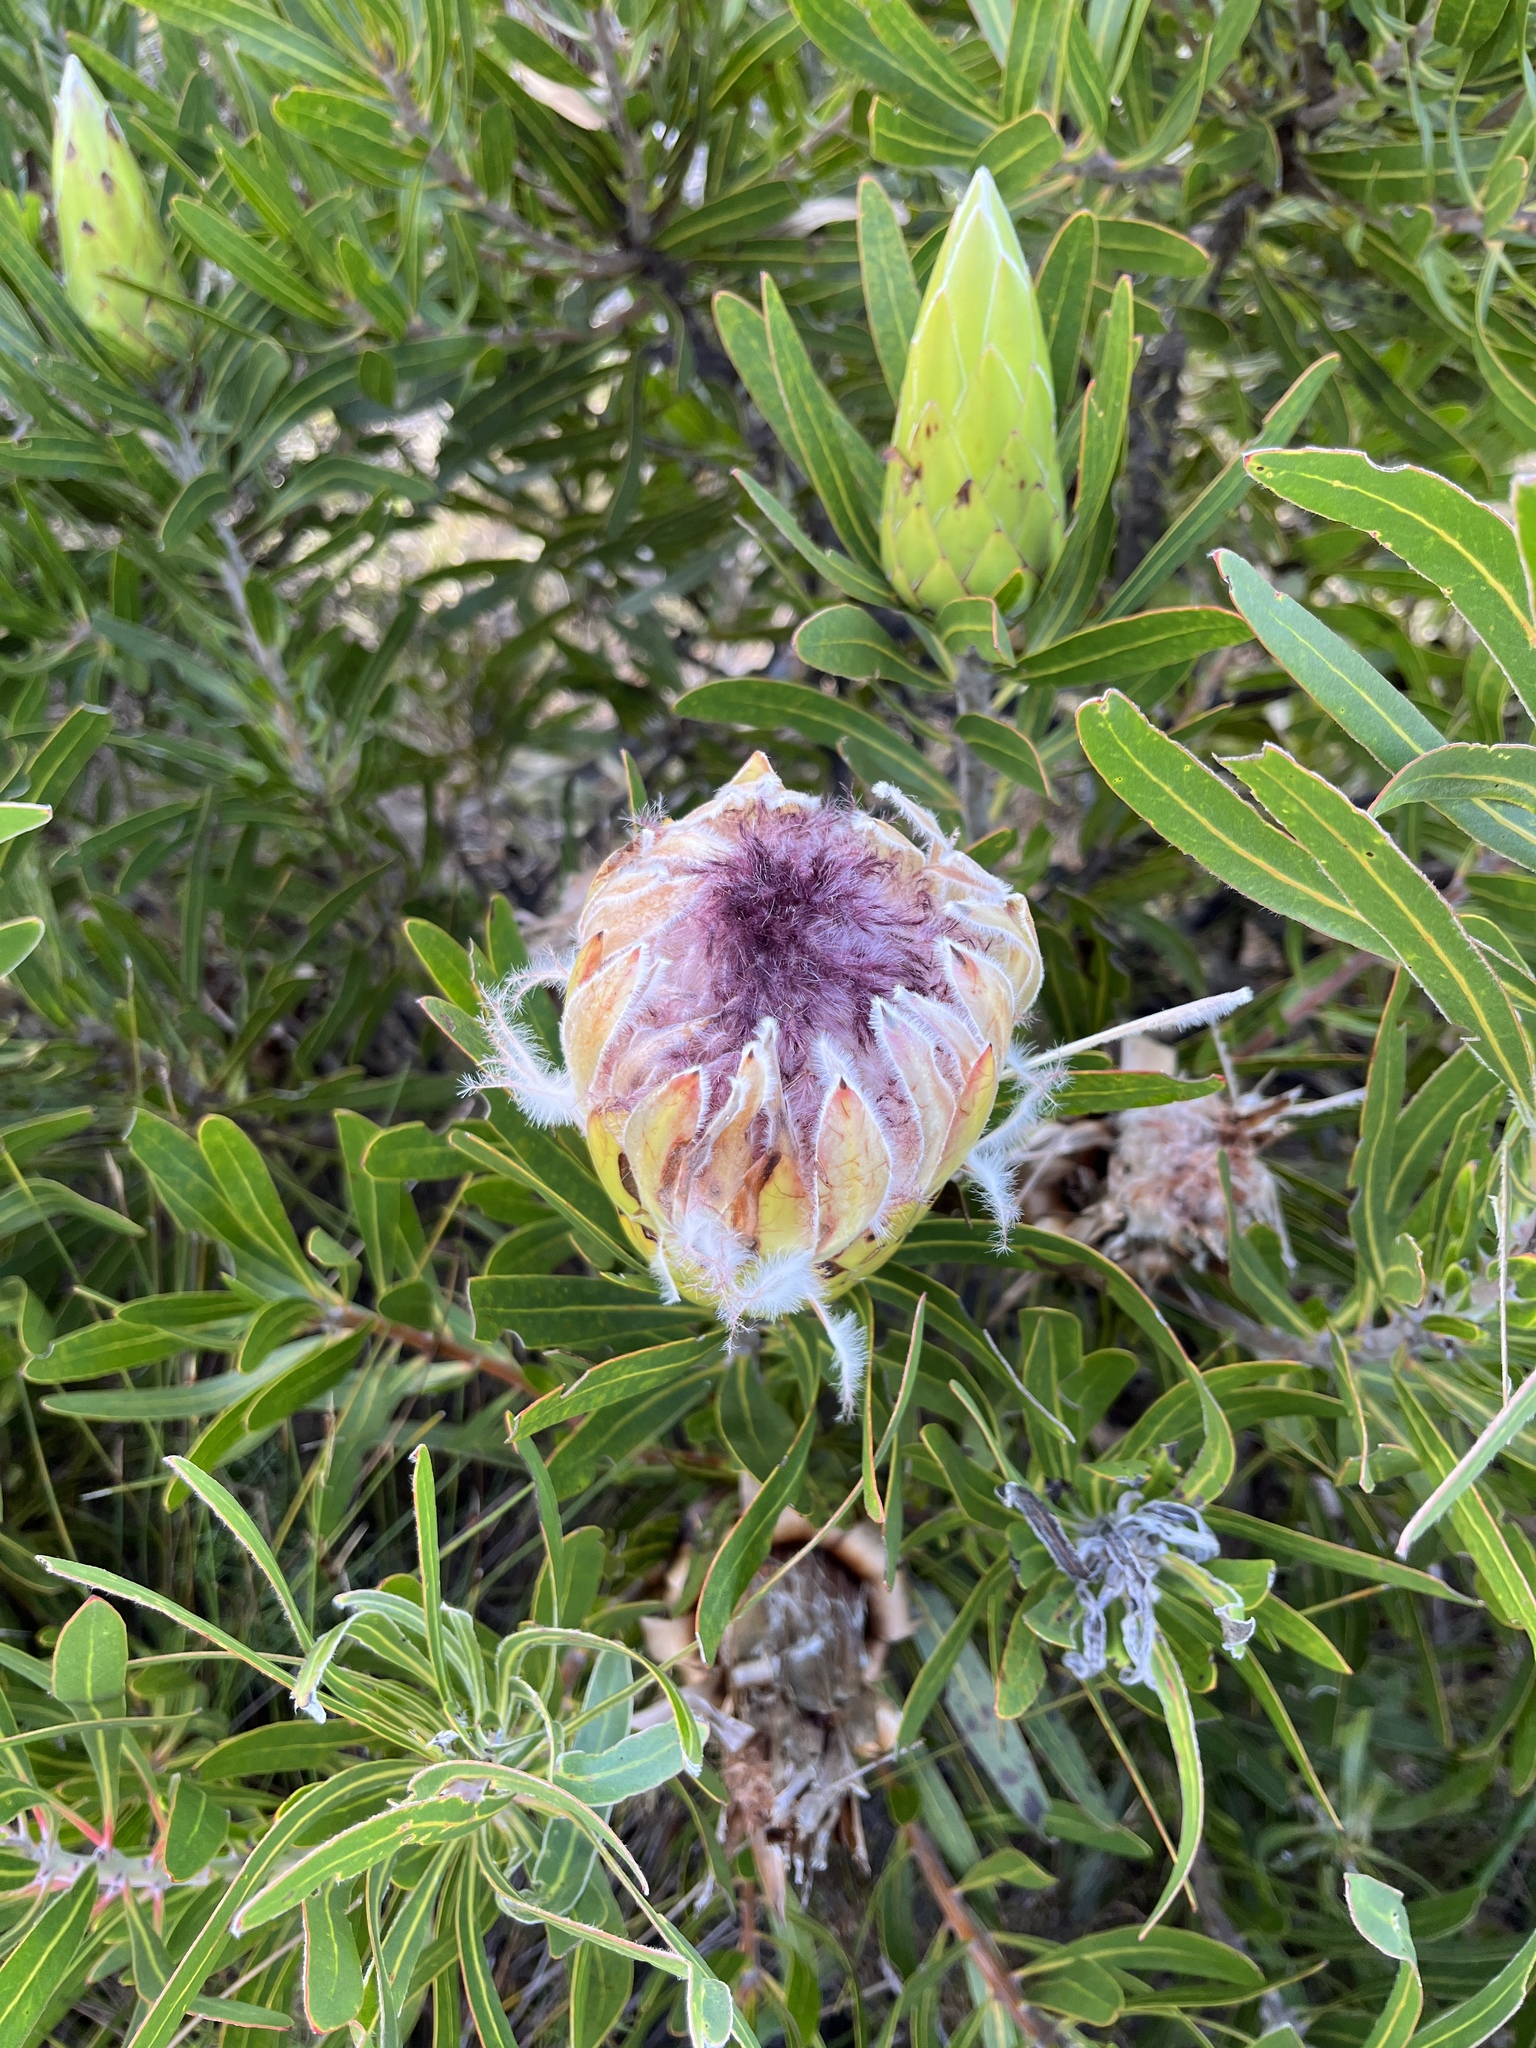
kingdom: Plantae
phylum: Tracheophyta
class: Magnoliopsida
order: Proteales
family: Proteaceae
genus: Protea
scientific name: Protea longifolia
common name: Long-leaf sugarbush
